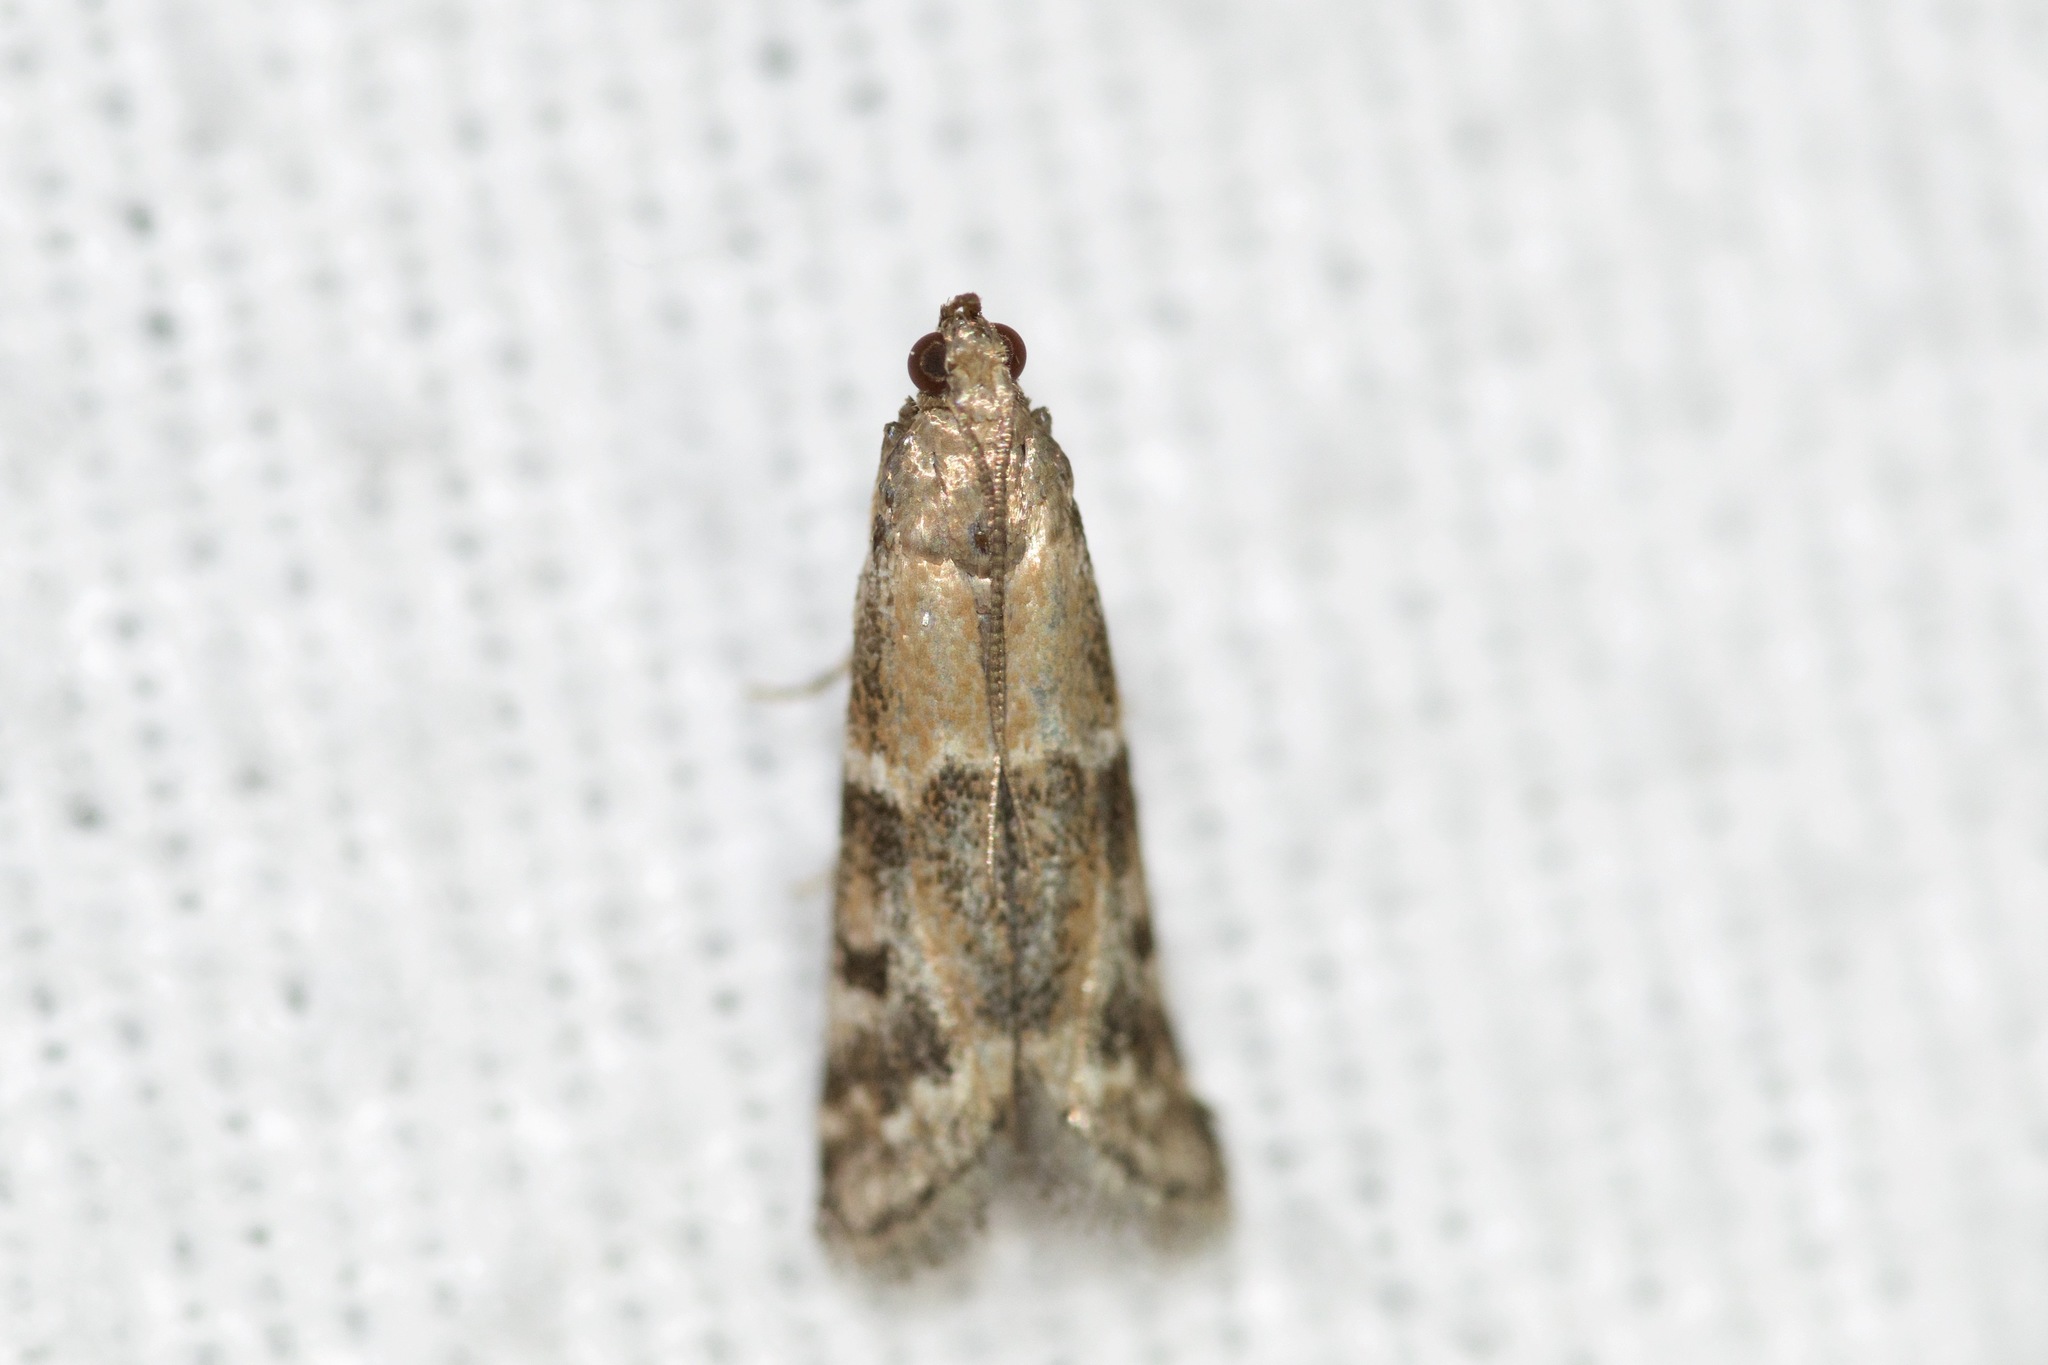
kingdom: Animalia
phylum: Arthropoda
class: Insecta
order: Lepidoptera
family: Pyralidae
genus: Vitula
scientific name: Vitula broweri
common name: Brower's vitula moth
